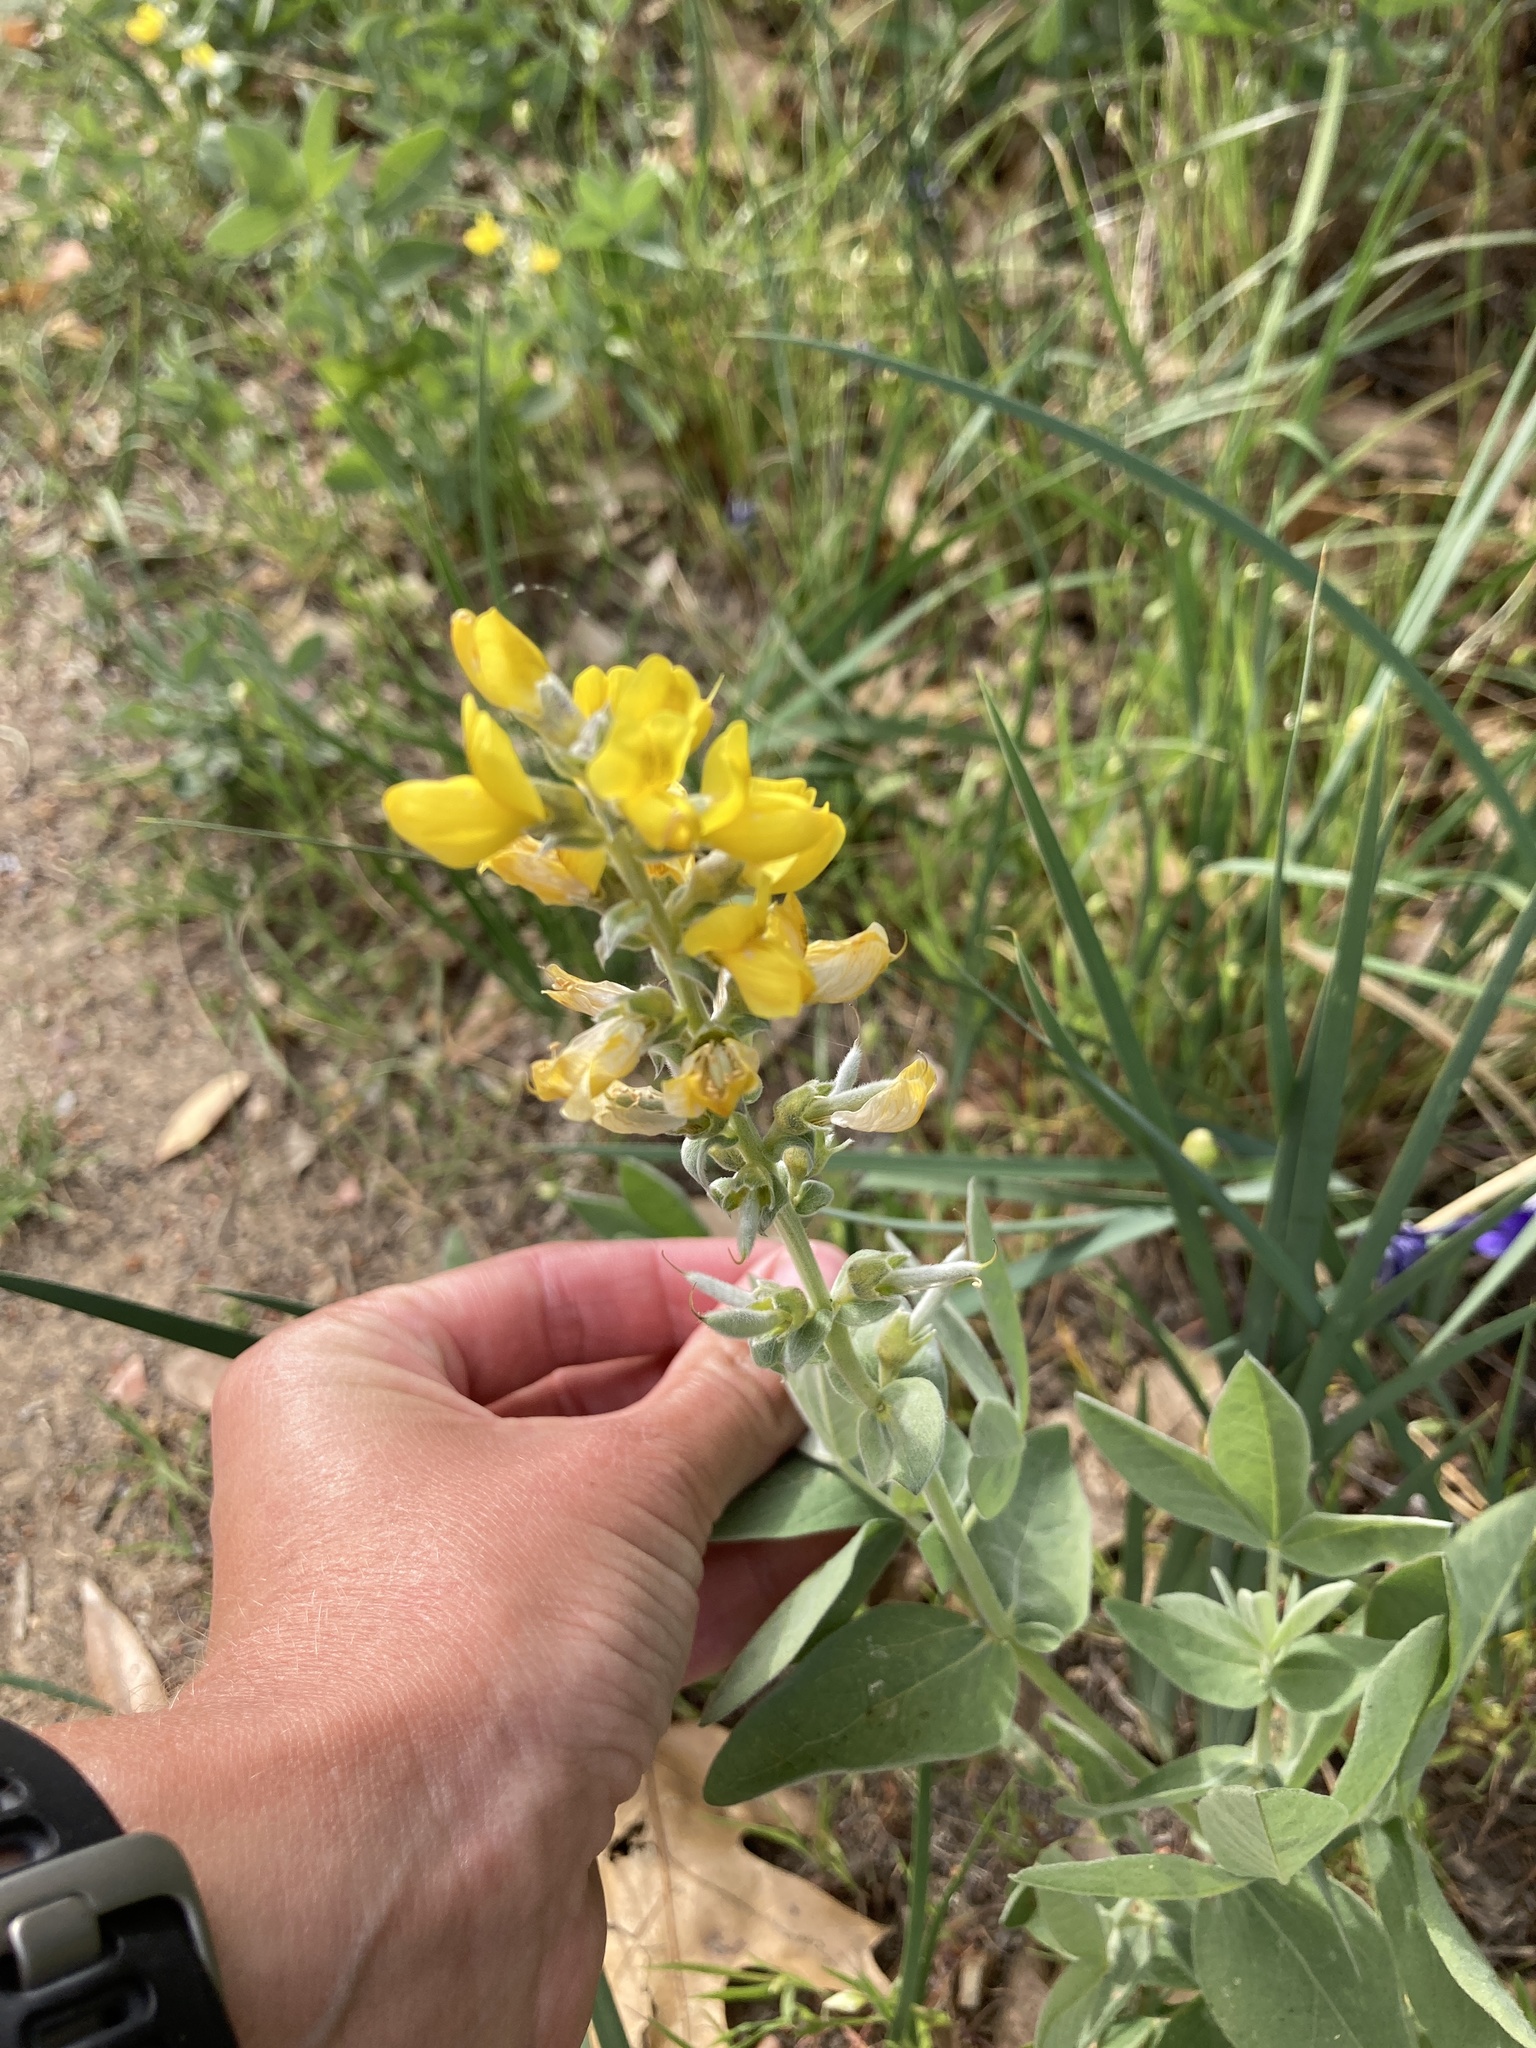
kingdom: Plantae
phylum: Tracheophyta
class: Magnoliopsida
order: Fabales
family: Fabaceae
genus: Thermopsis
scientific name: Thermopsis californica
